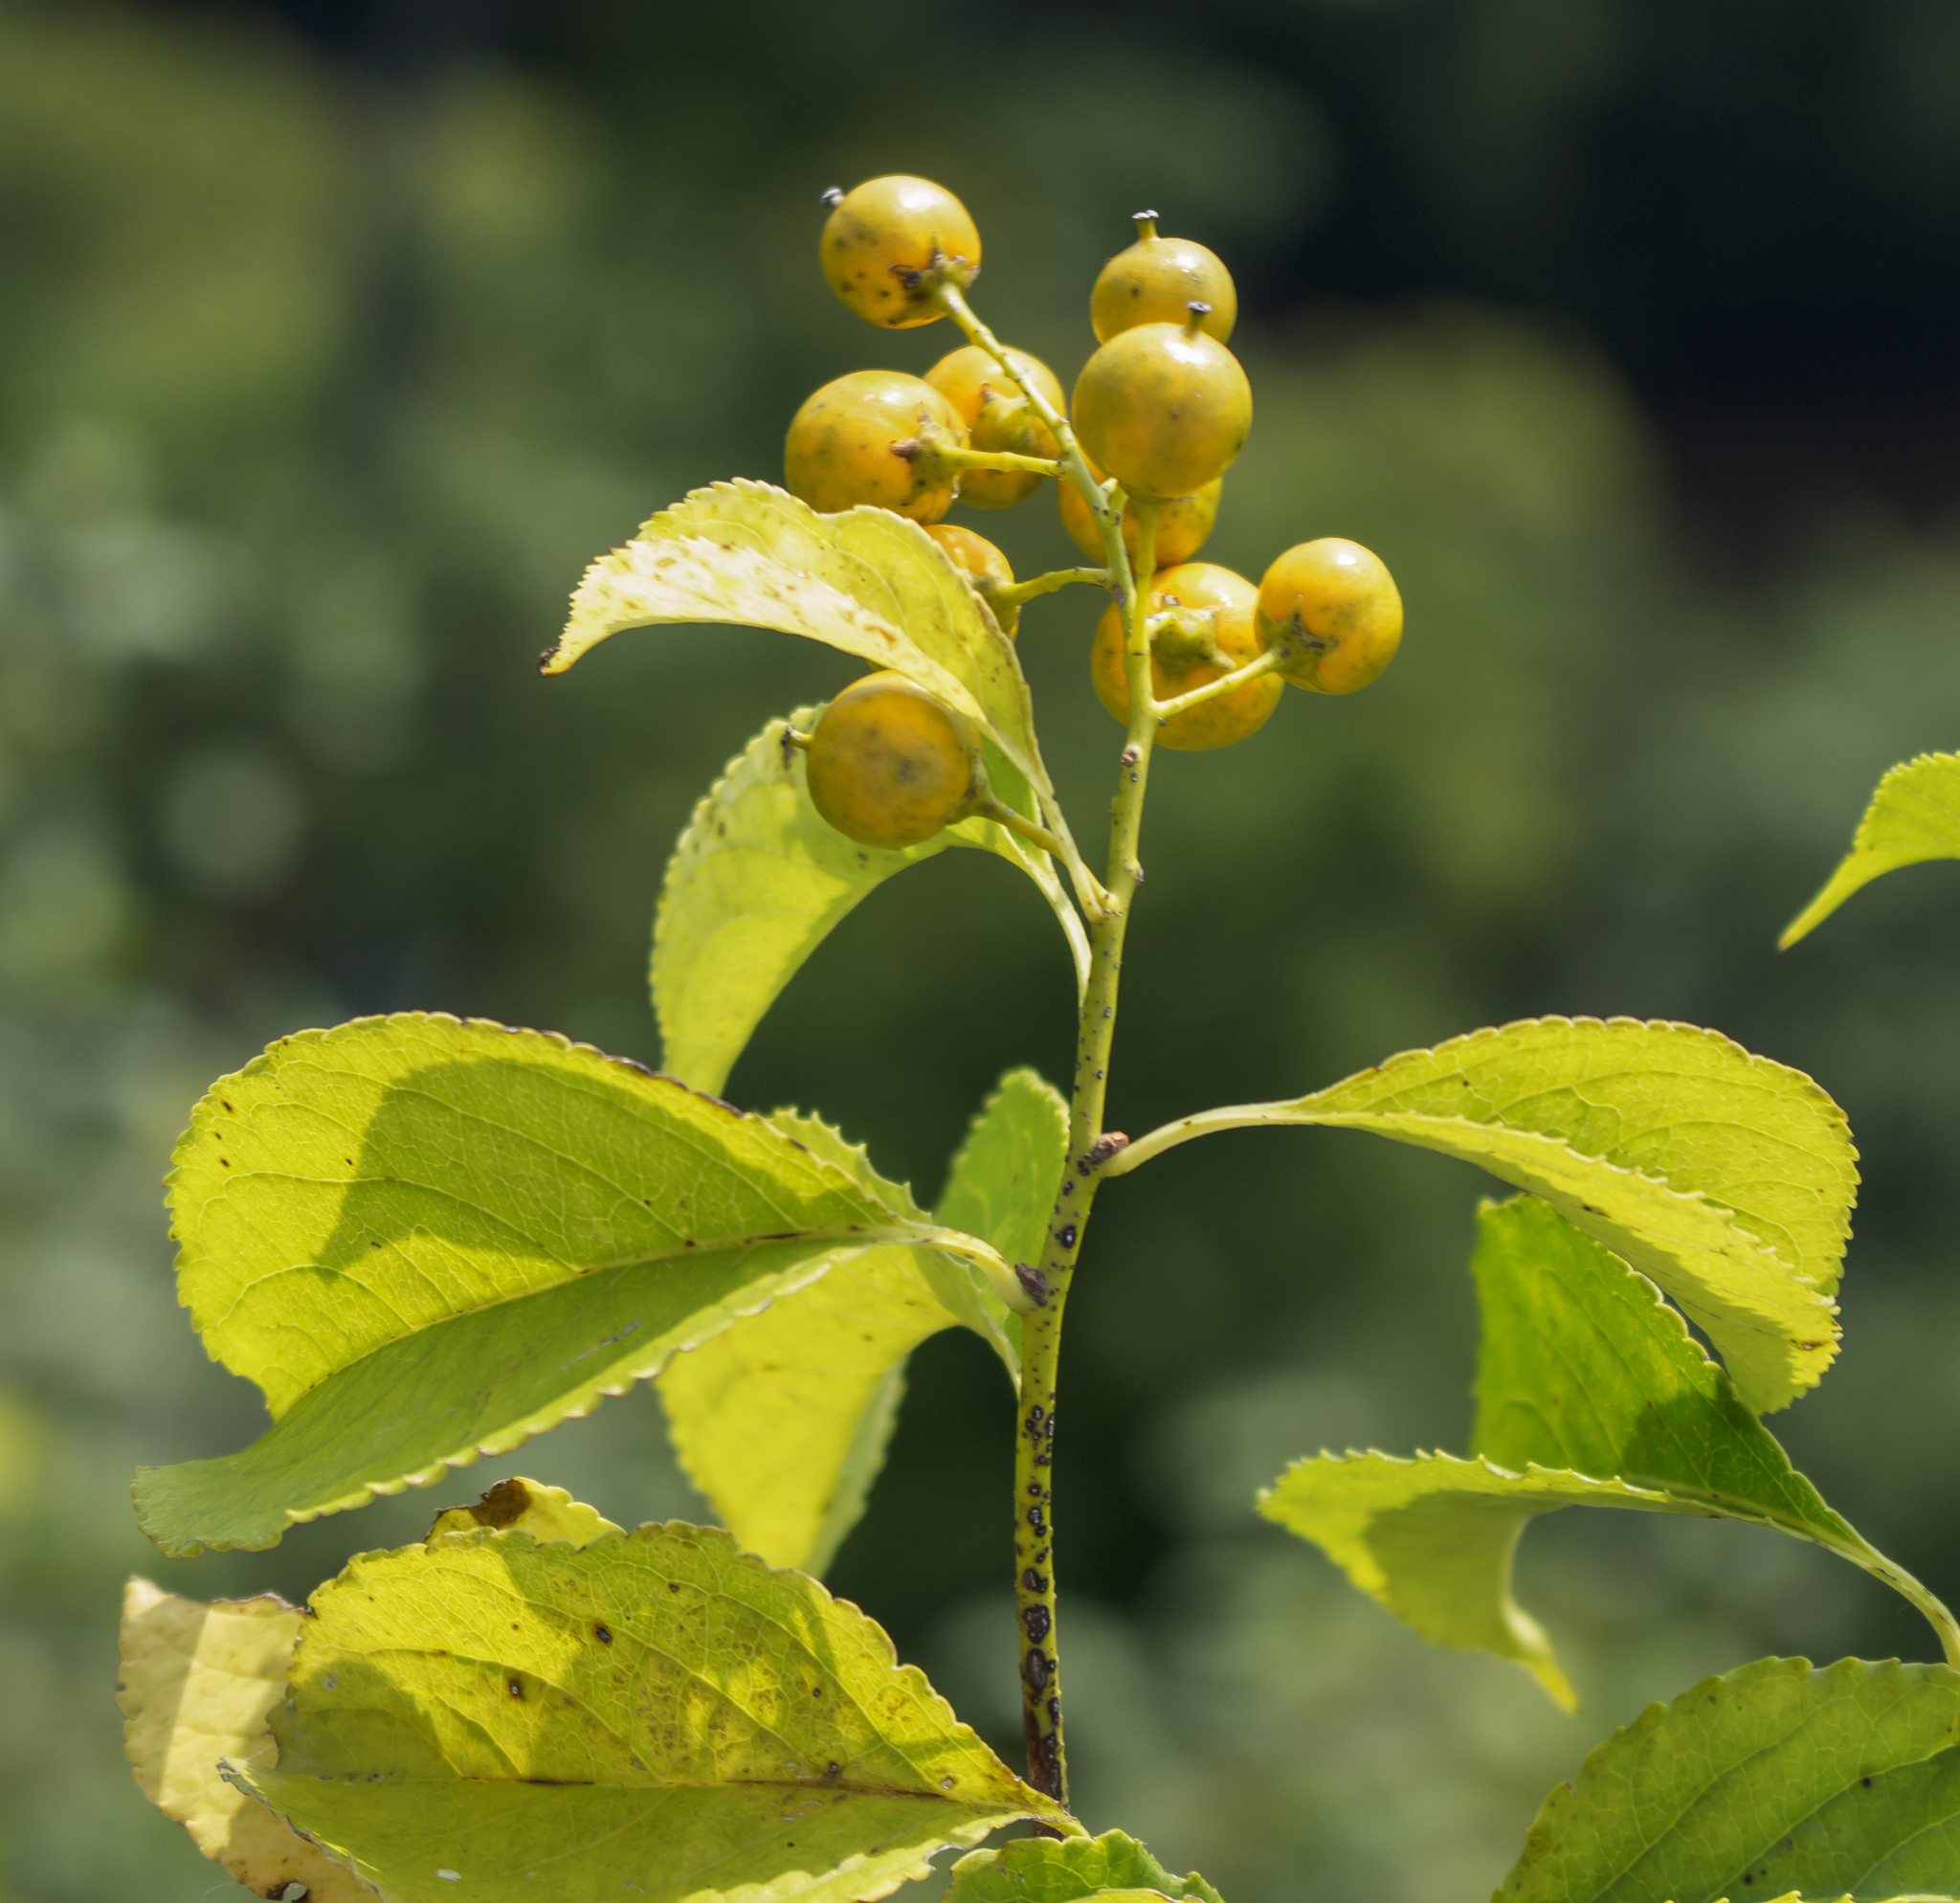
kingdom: Plantae
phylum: Tracheophyta
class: Magnoliopsida
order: Celastrales
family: Celastraceae
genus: Celastrus
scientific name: Celastrus scandens
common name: American bittersweet
